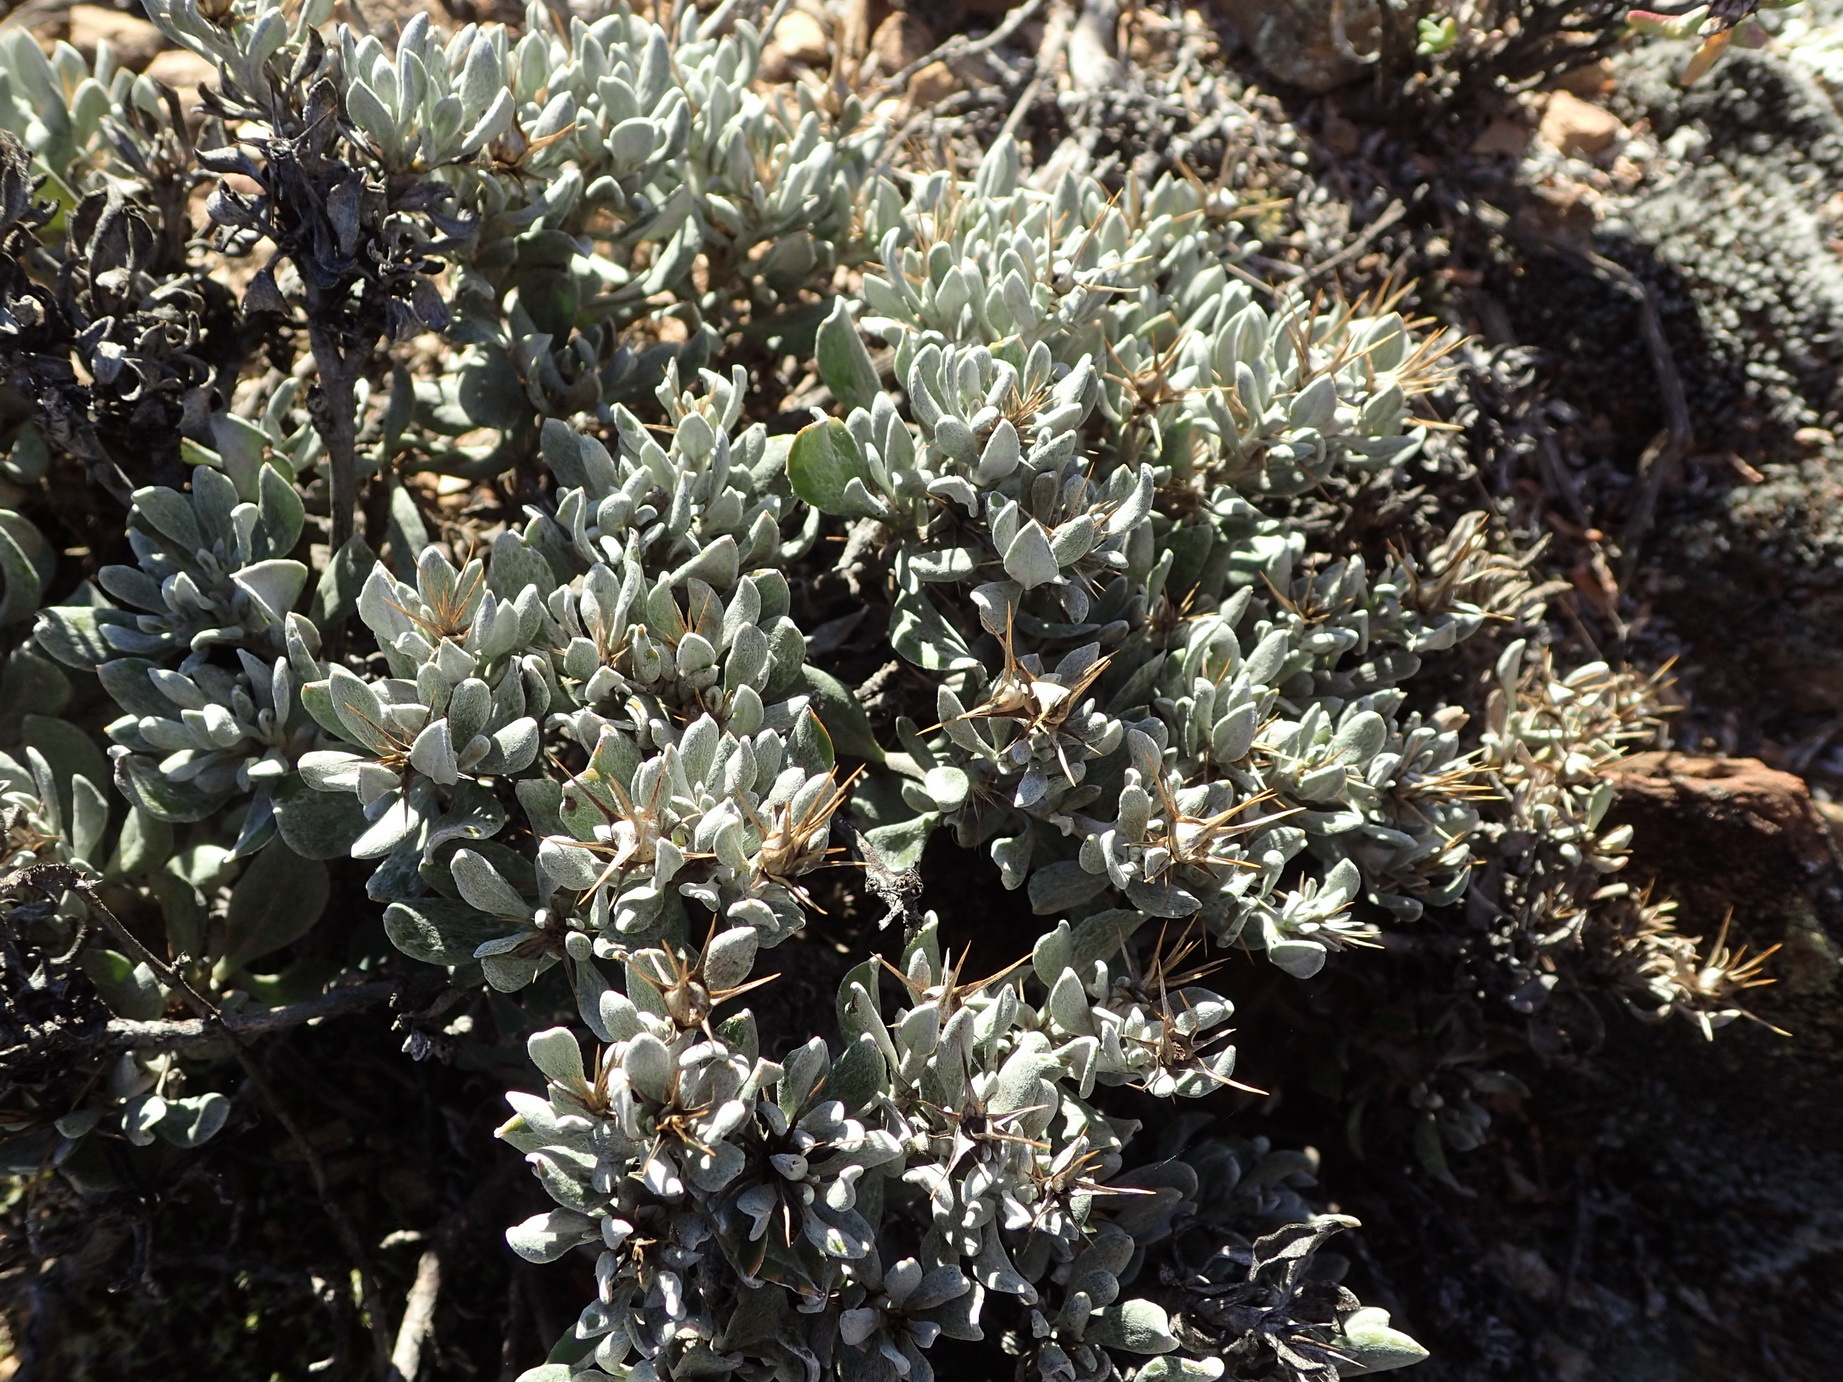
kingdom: Plantae
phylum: Tracheophyta
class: Magnoliopsida
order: Asterales
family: Asteraceae
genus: Macledium
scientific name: Macledium spinosum
